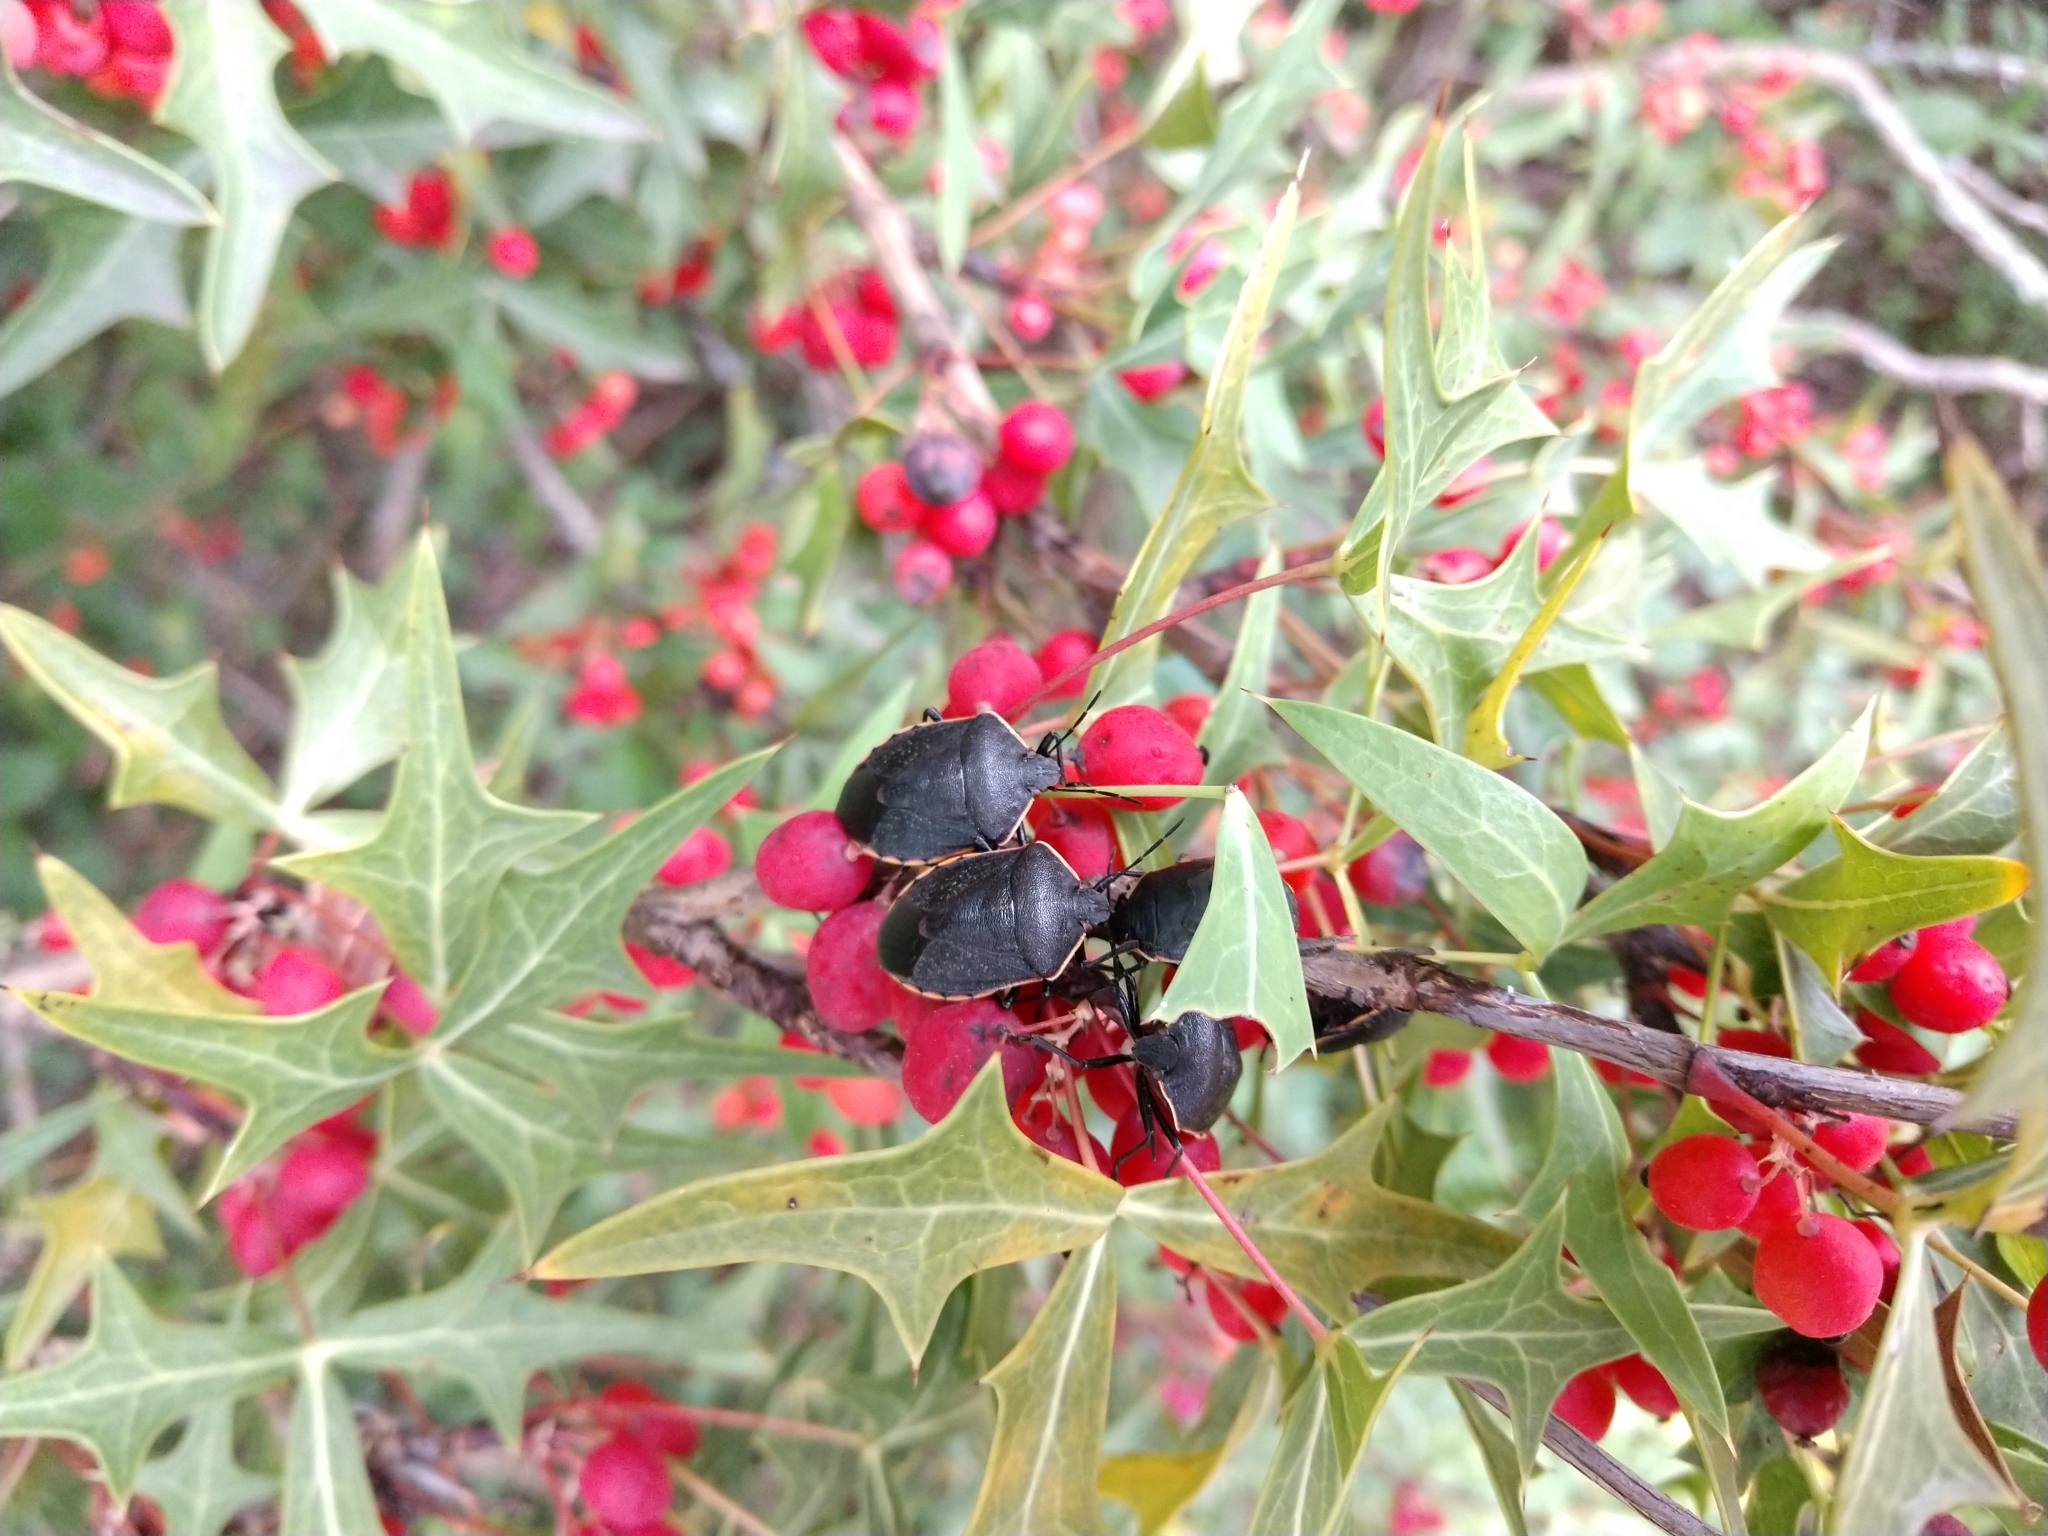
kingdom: Animalia
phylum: Arthropoda
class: Insecta
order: Hemiptera
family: Pentatomidae
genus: Chlorochroa
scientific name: Chlorochroa ligata
